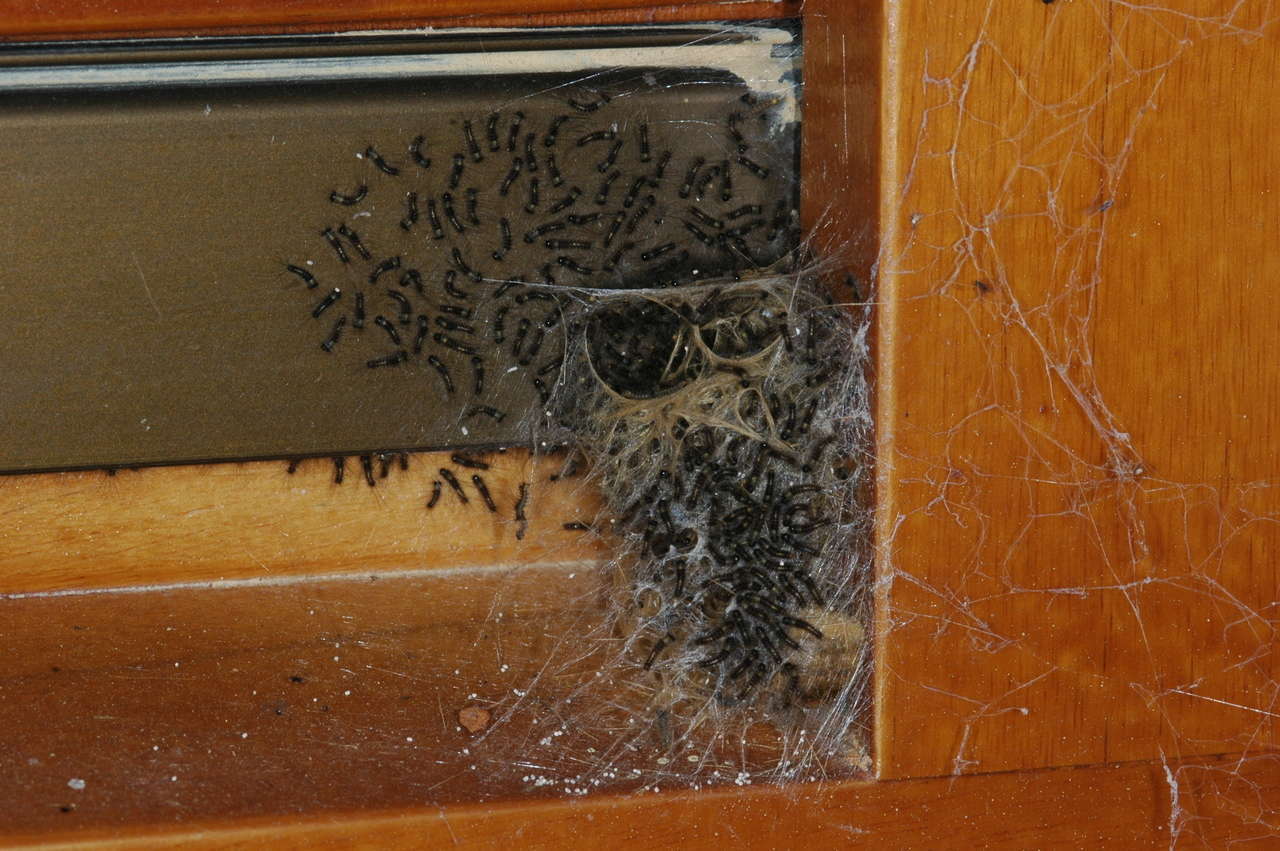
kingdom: Animalia
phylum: Arthropoda
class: Insecta
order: Lepidoptera
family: Erebidae
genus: Orgyia
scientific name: Orgyia
